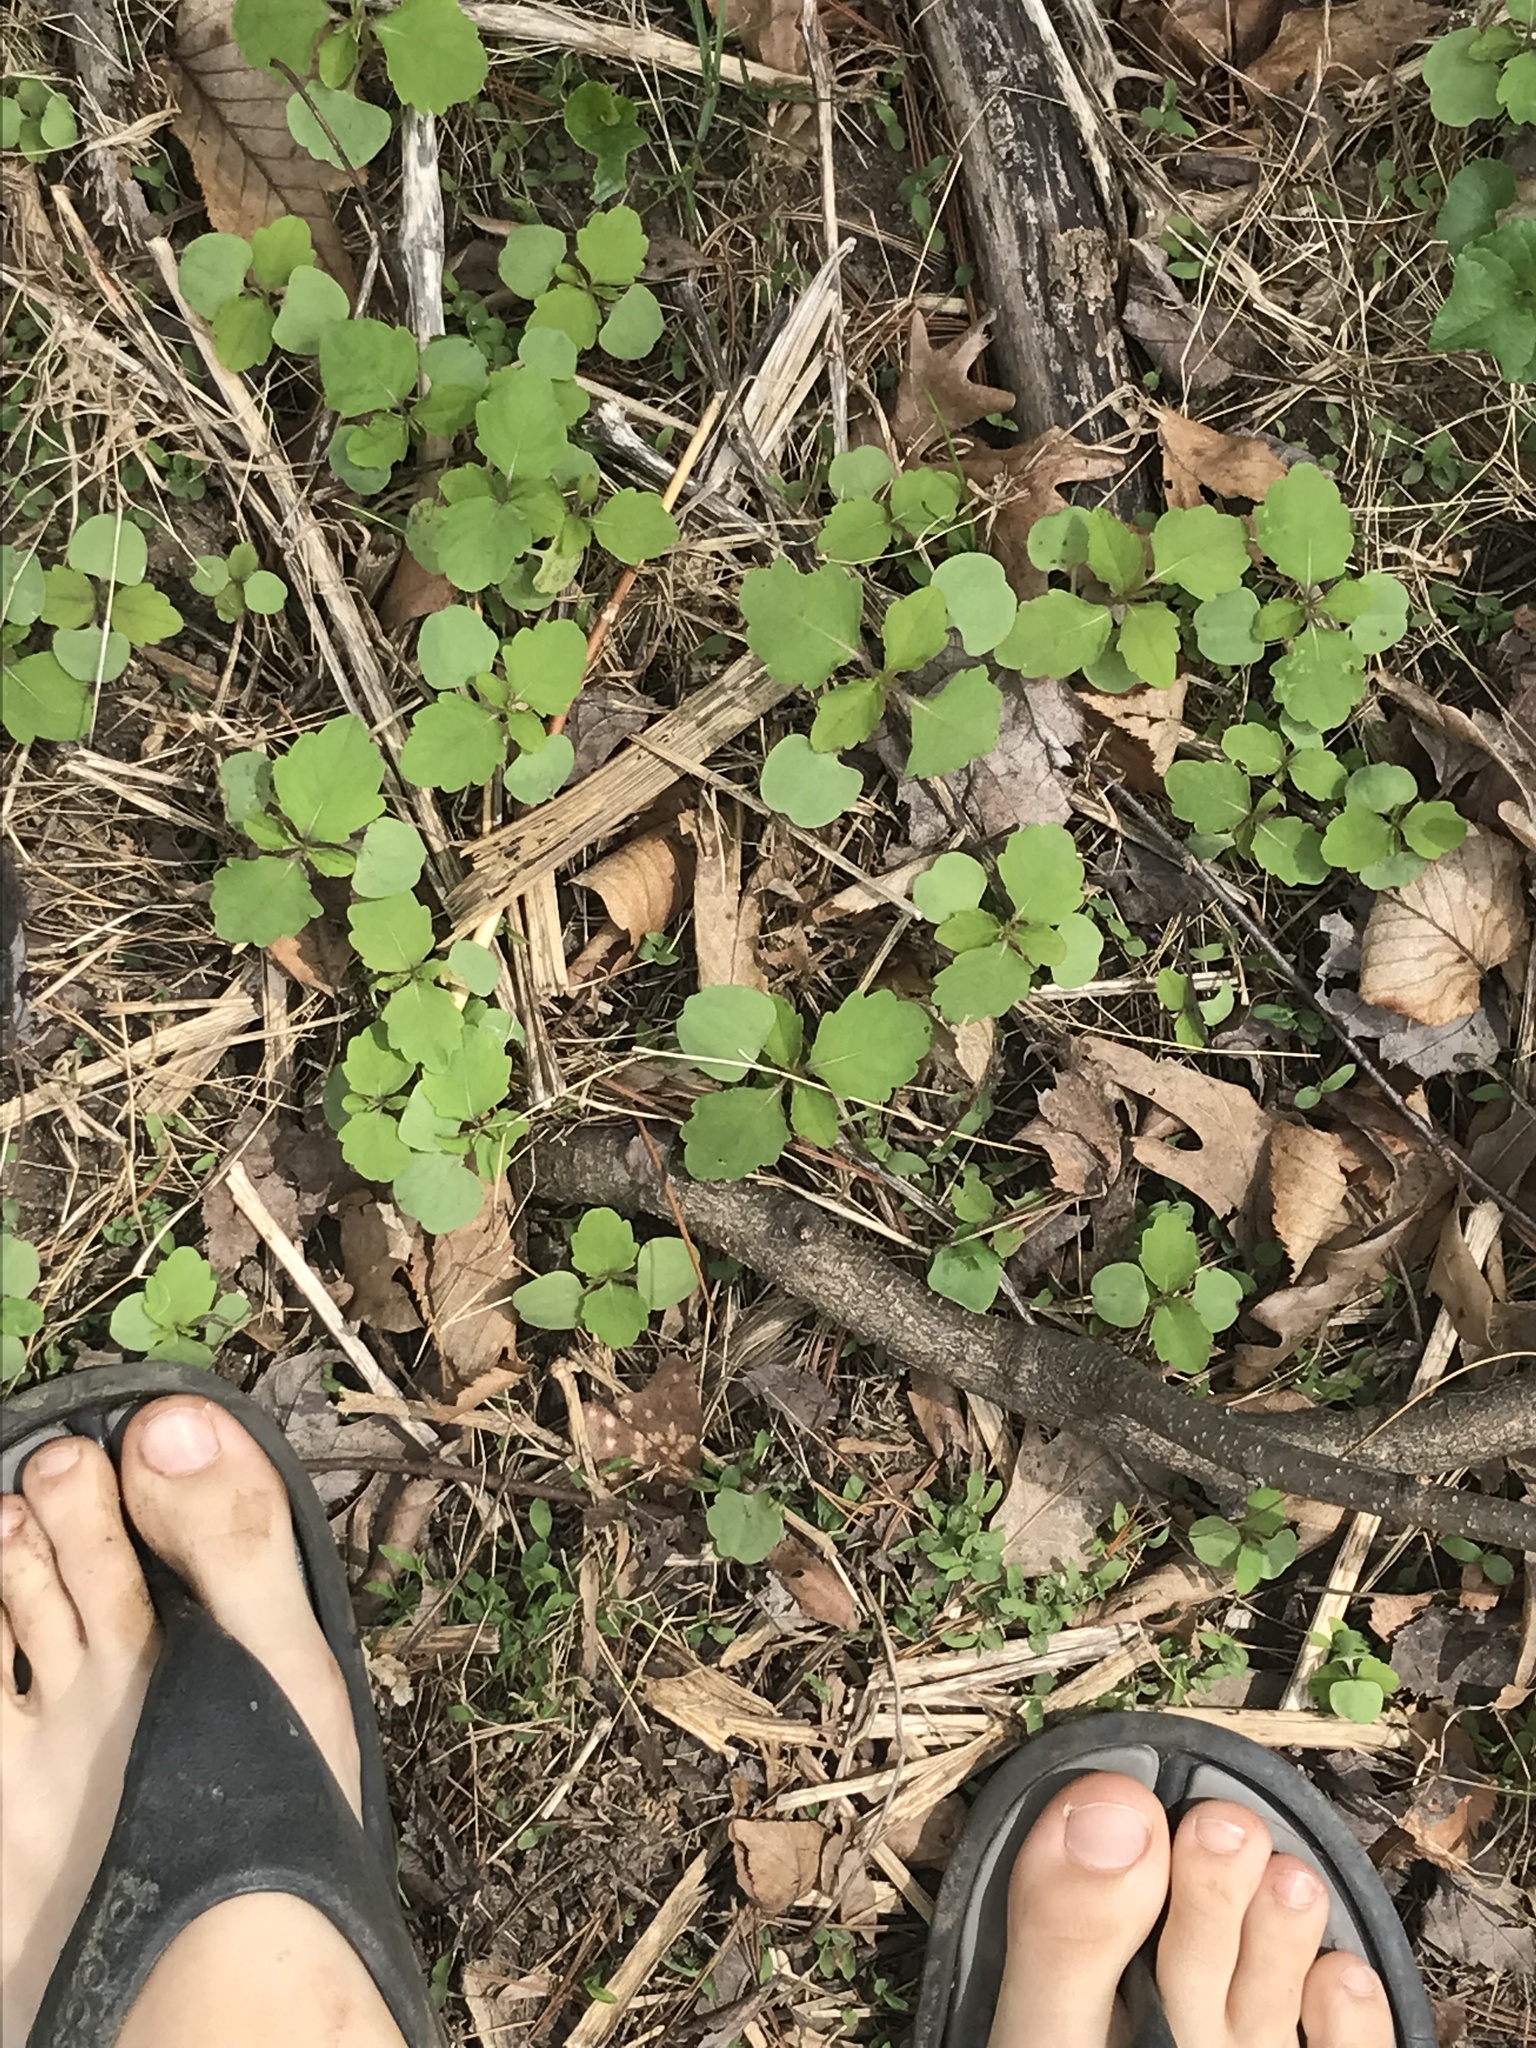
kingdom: Plantae
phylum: Tracheophyta
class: Magnoliopsida
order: Ericales
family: Balsaminaceae
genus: Impatiens
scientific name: Impatiens
